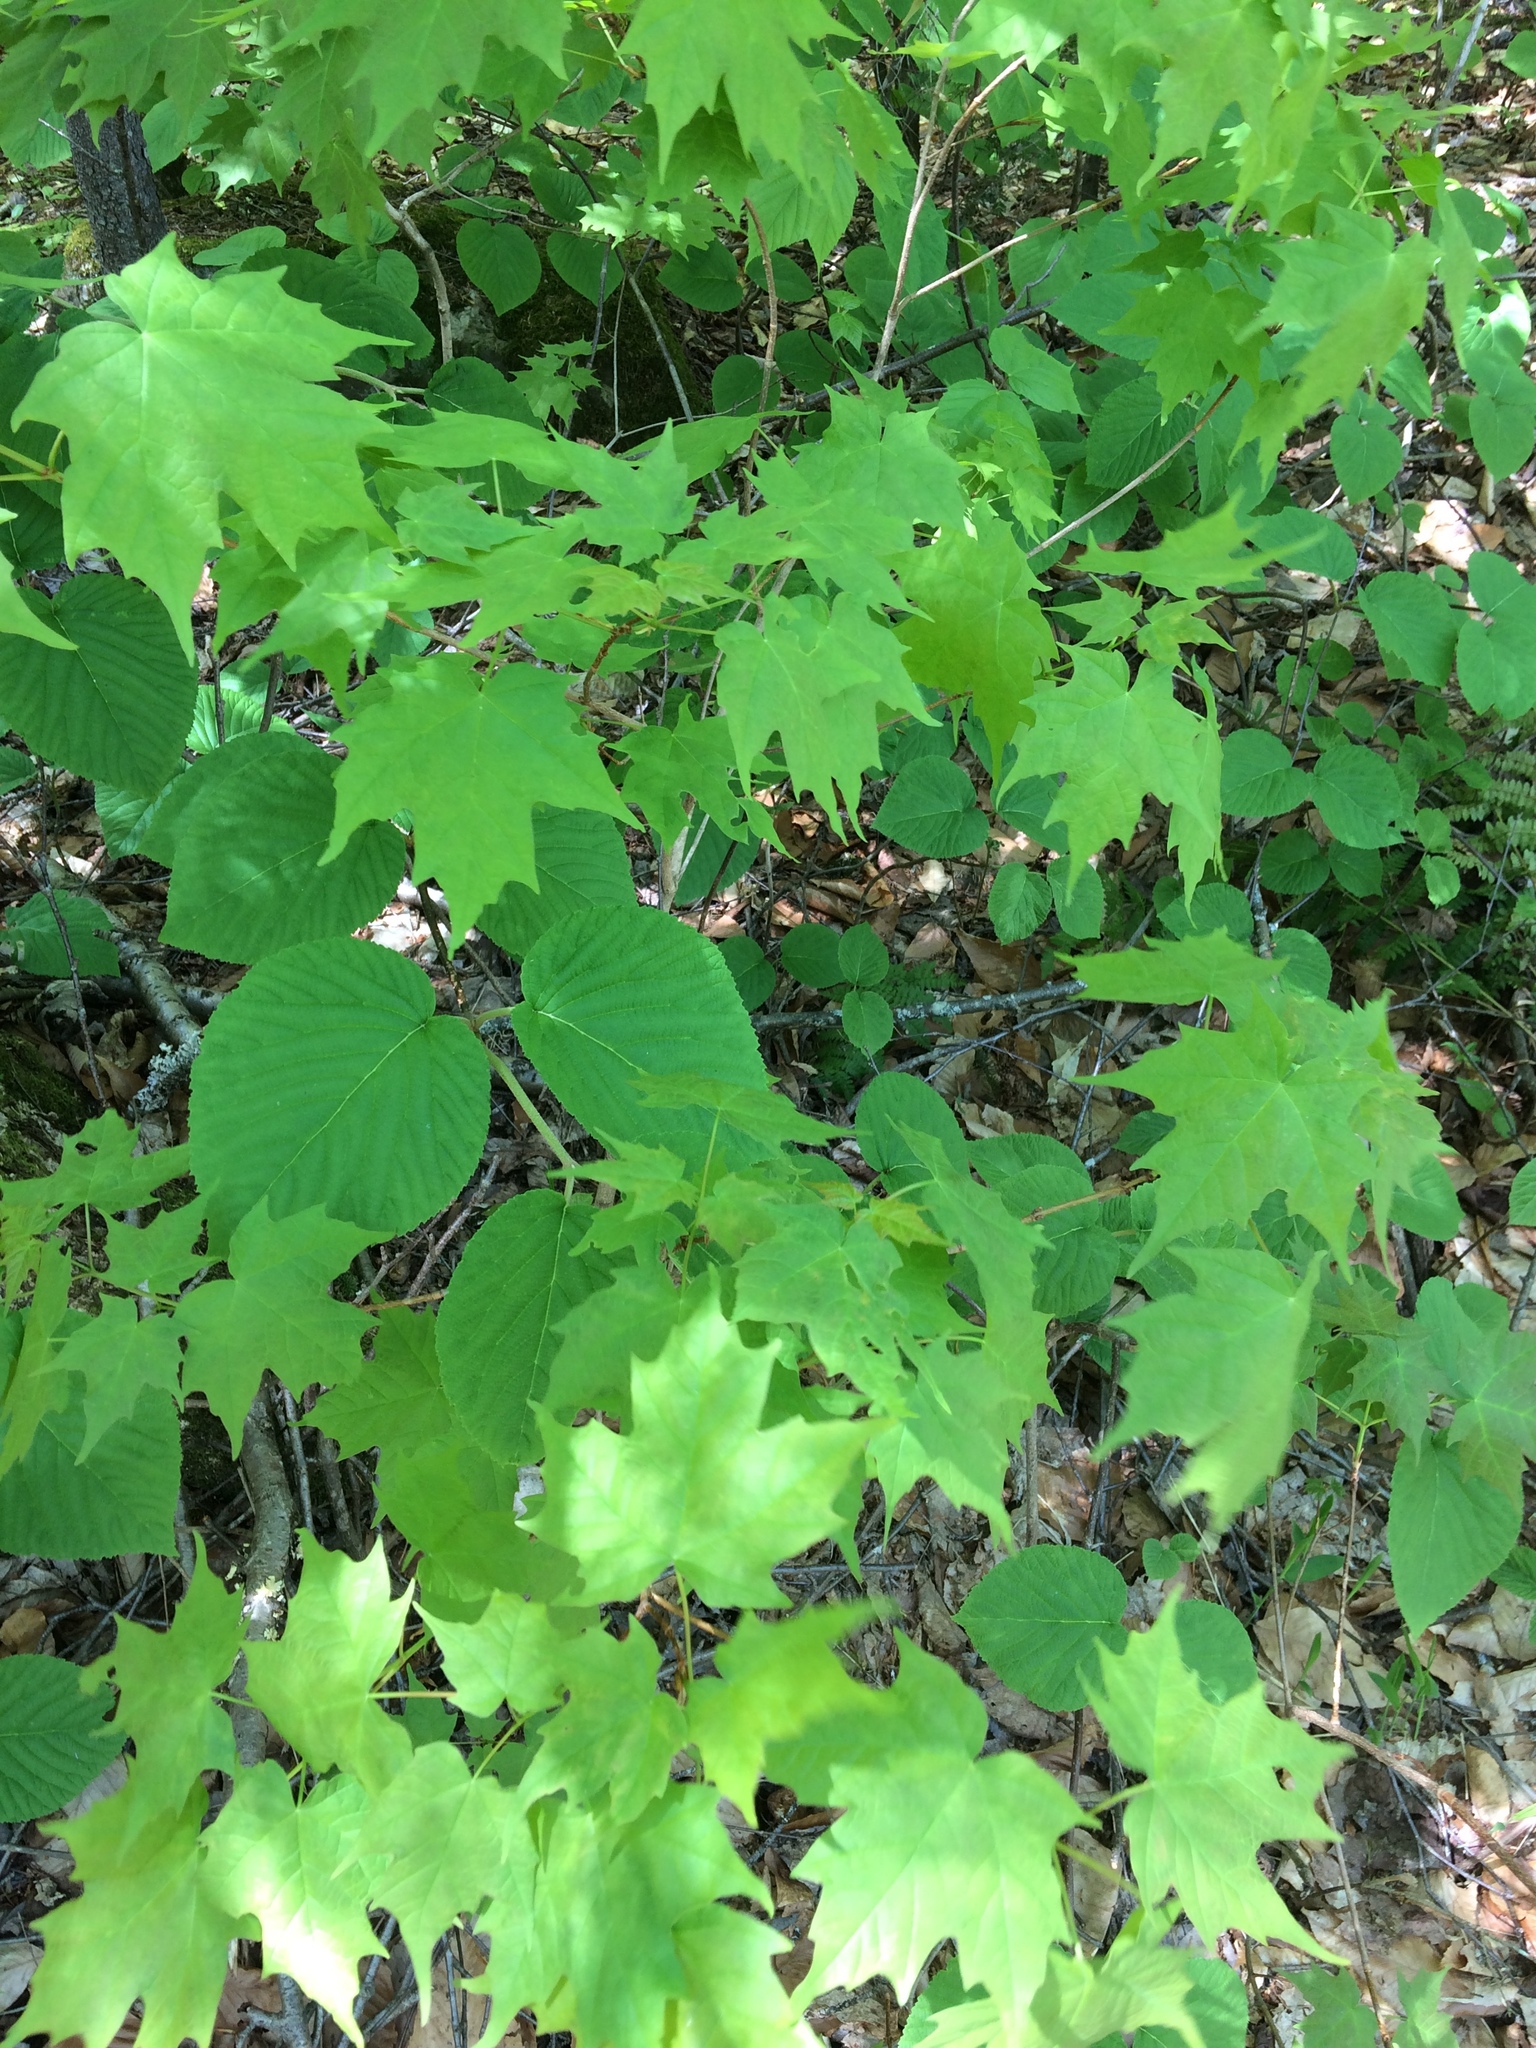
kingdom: Plantae
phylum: Tracheophyta
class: Magnoliopsida
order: Sapindales
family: Sapindaceae
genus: Acer
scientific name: Acer saccharum
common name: Sugar maple
